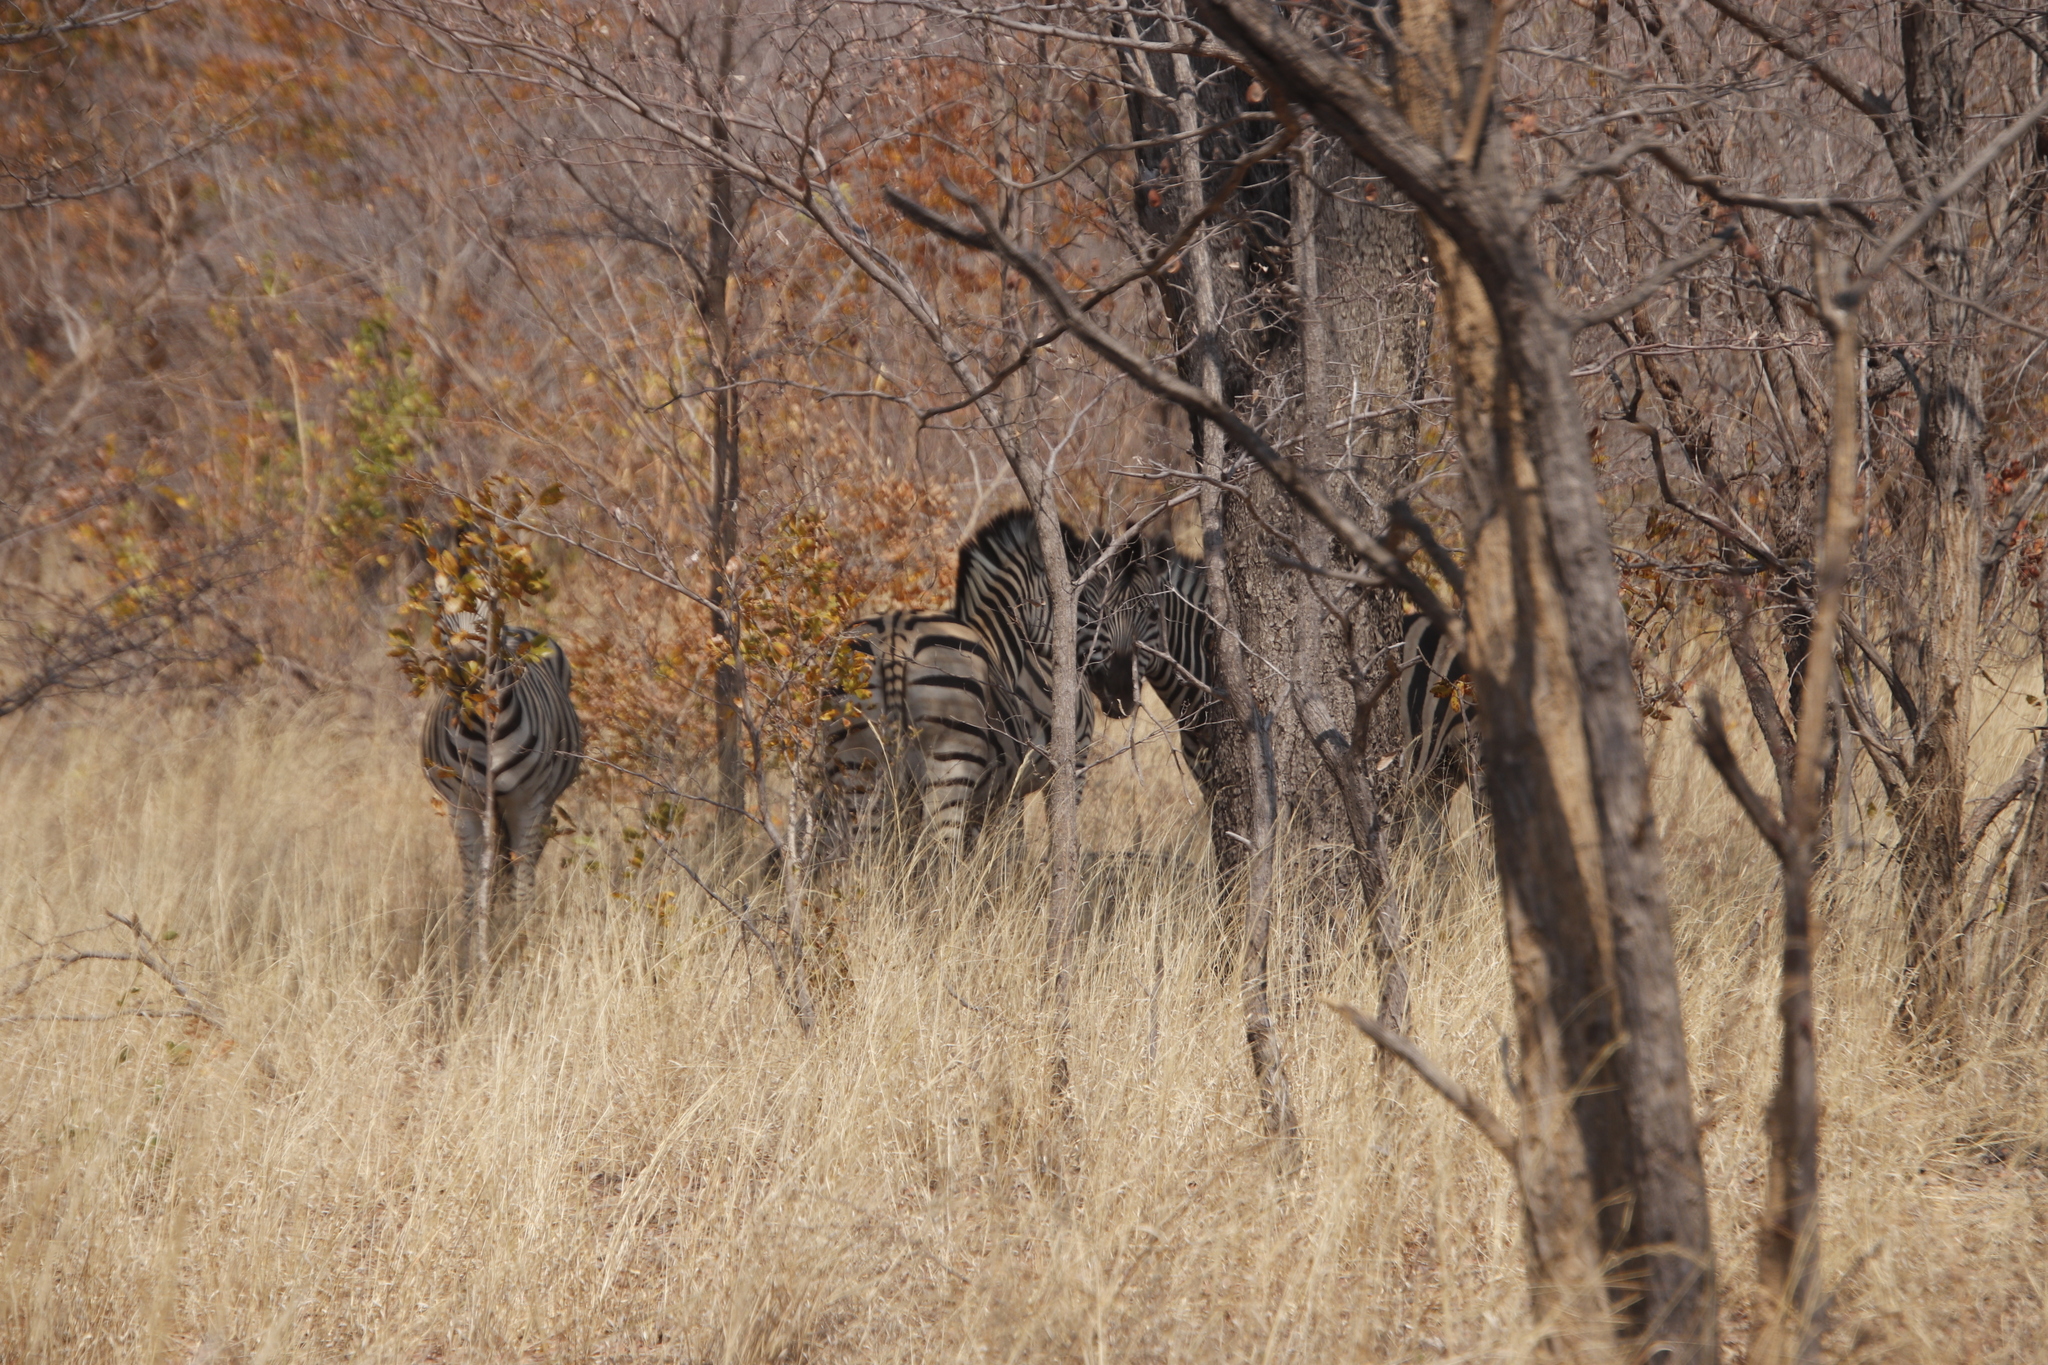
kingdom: Animalia
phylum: Chordata
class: Mammalia
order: Perissodactyla
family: Equidae
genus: Equus
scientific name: Equus quagga
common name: Plains zebra
